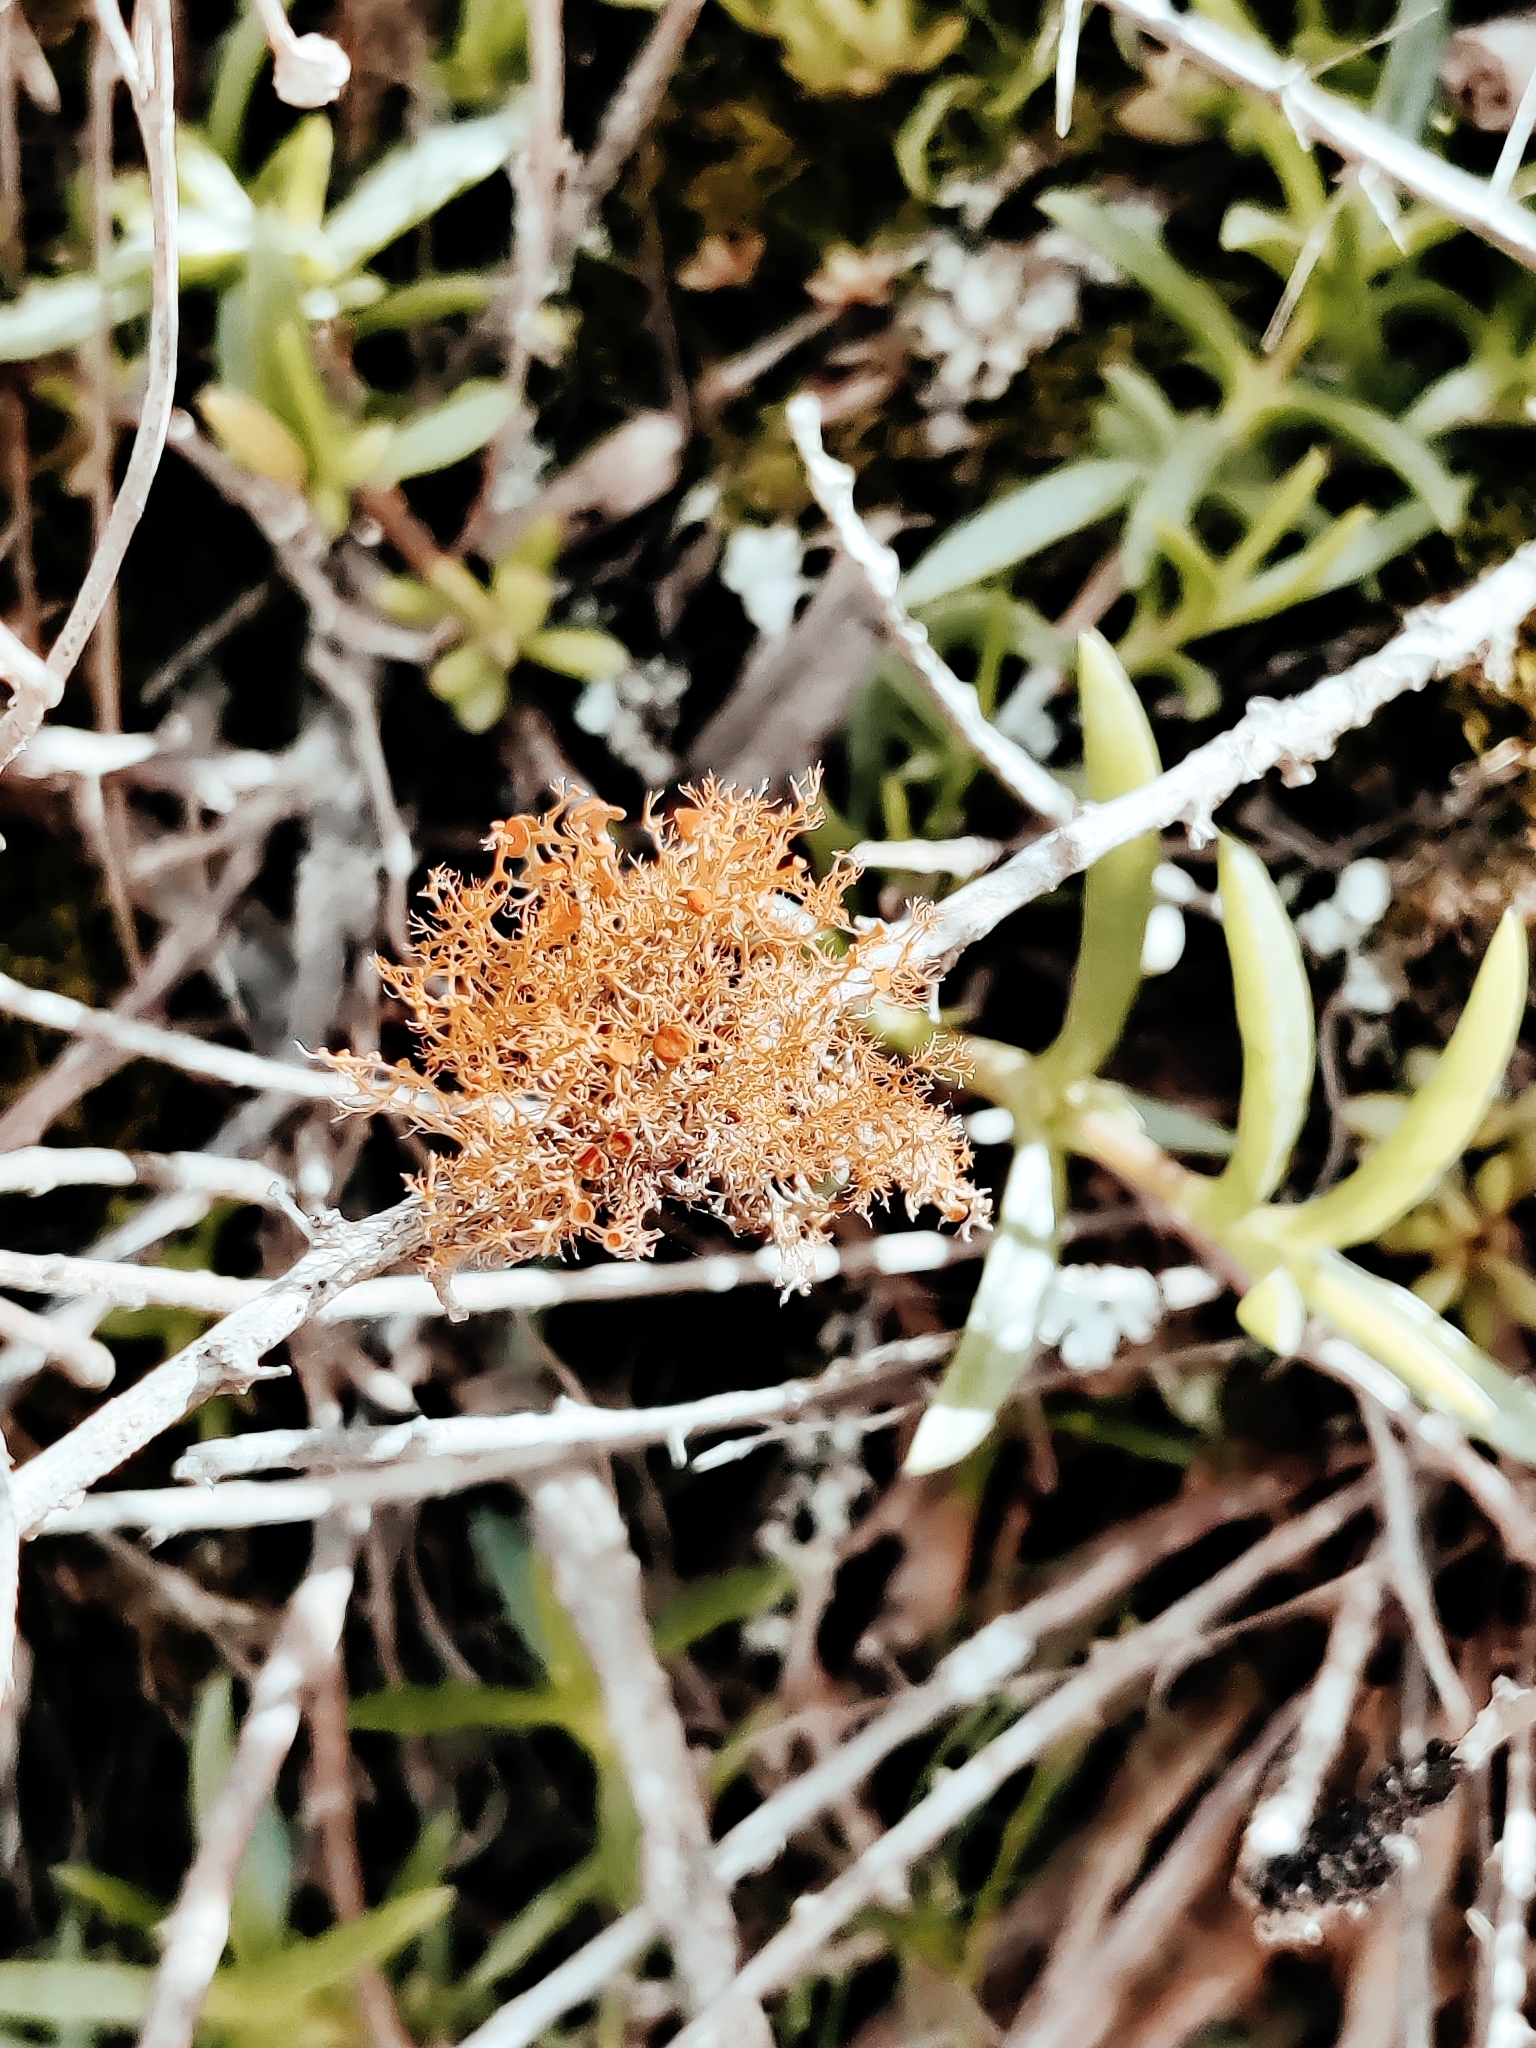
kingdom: Fungi
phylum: Ascomycota
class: Lecanoromycetes
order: Teloschistales
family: Teloschistaceae
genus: Teloschistes
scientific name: Teloschistes exilis
